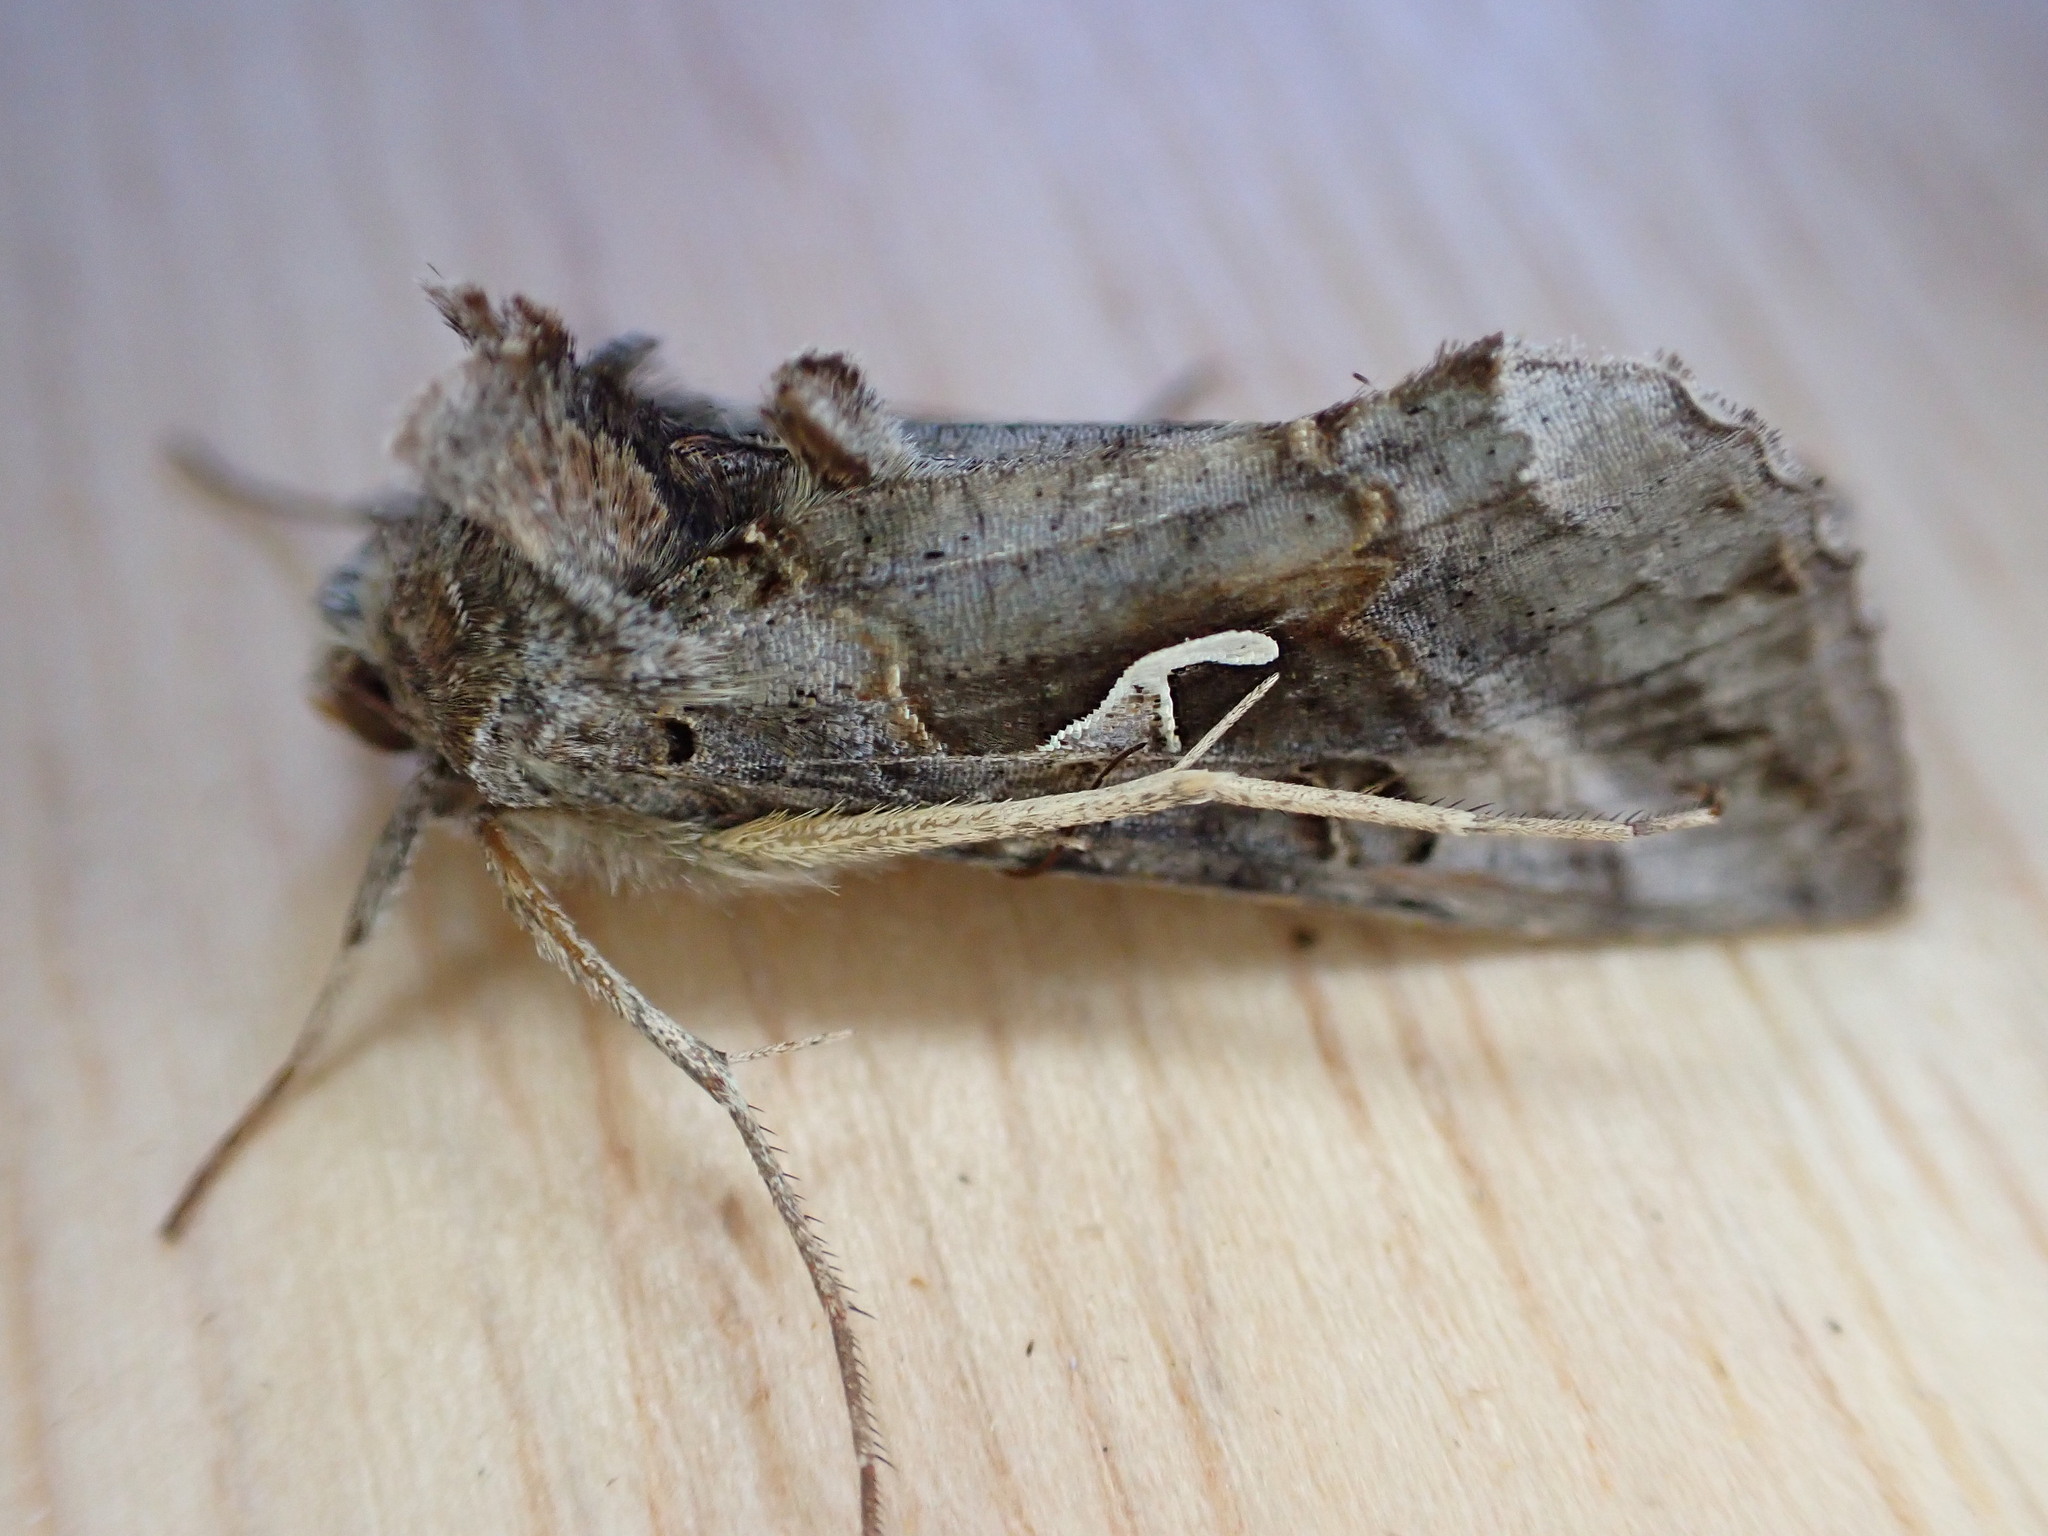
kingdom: Animalia
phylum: Arthropoda
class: Insecta
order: Lepidoptera
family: Noctuidae
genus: Autographa
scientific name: Autographa gamma
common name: Silver y
